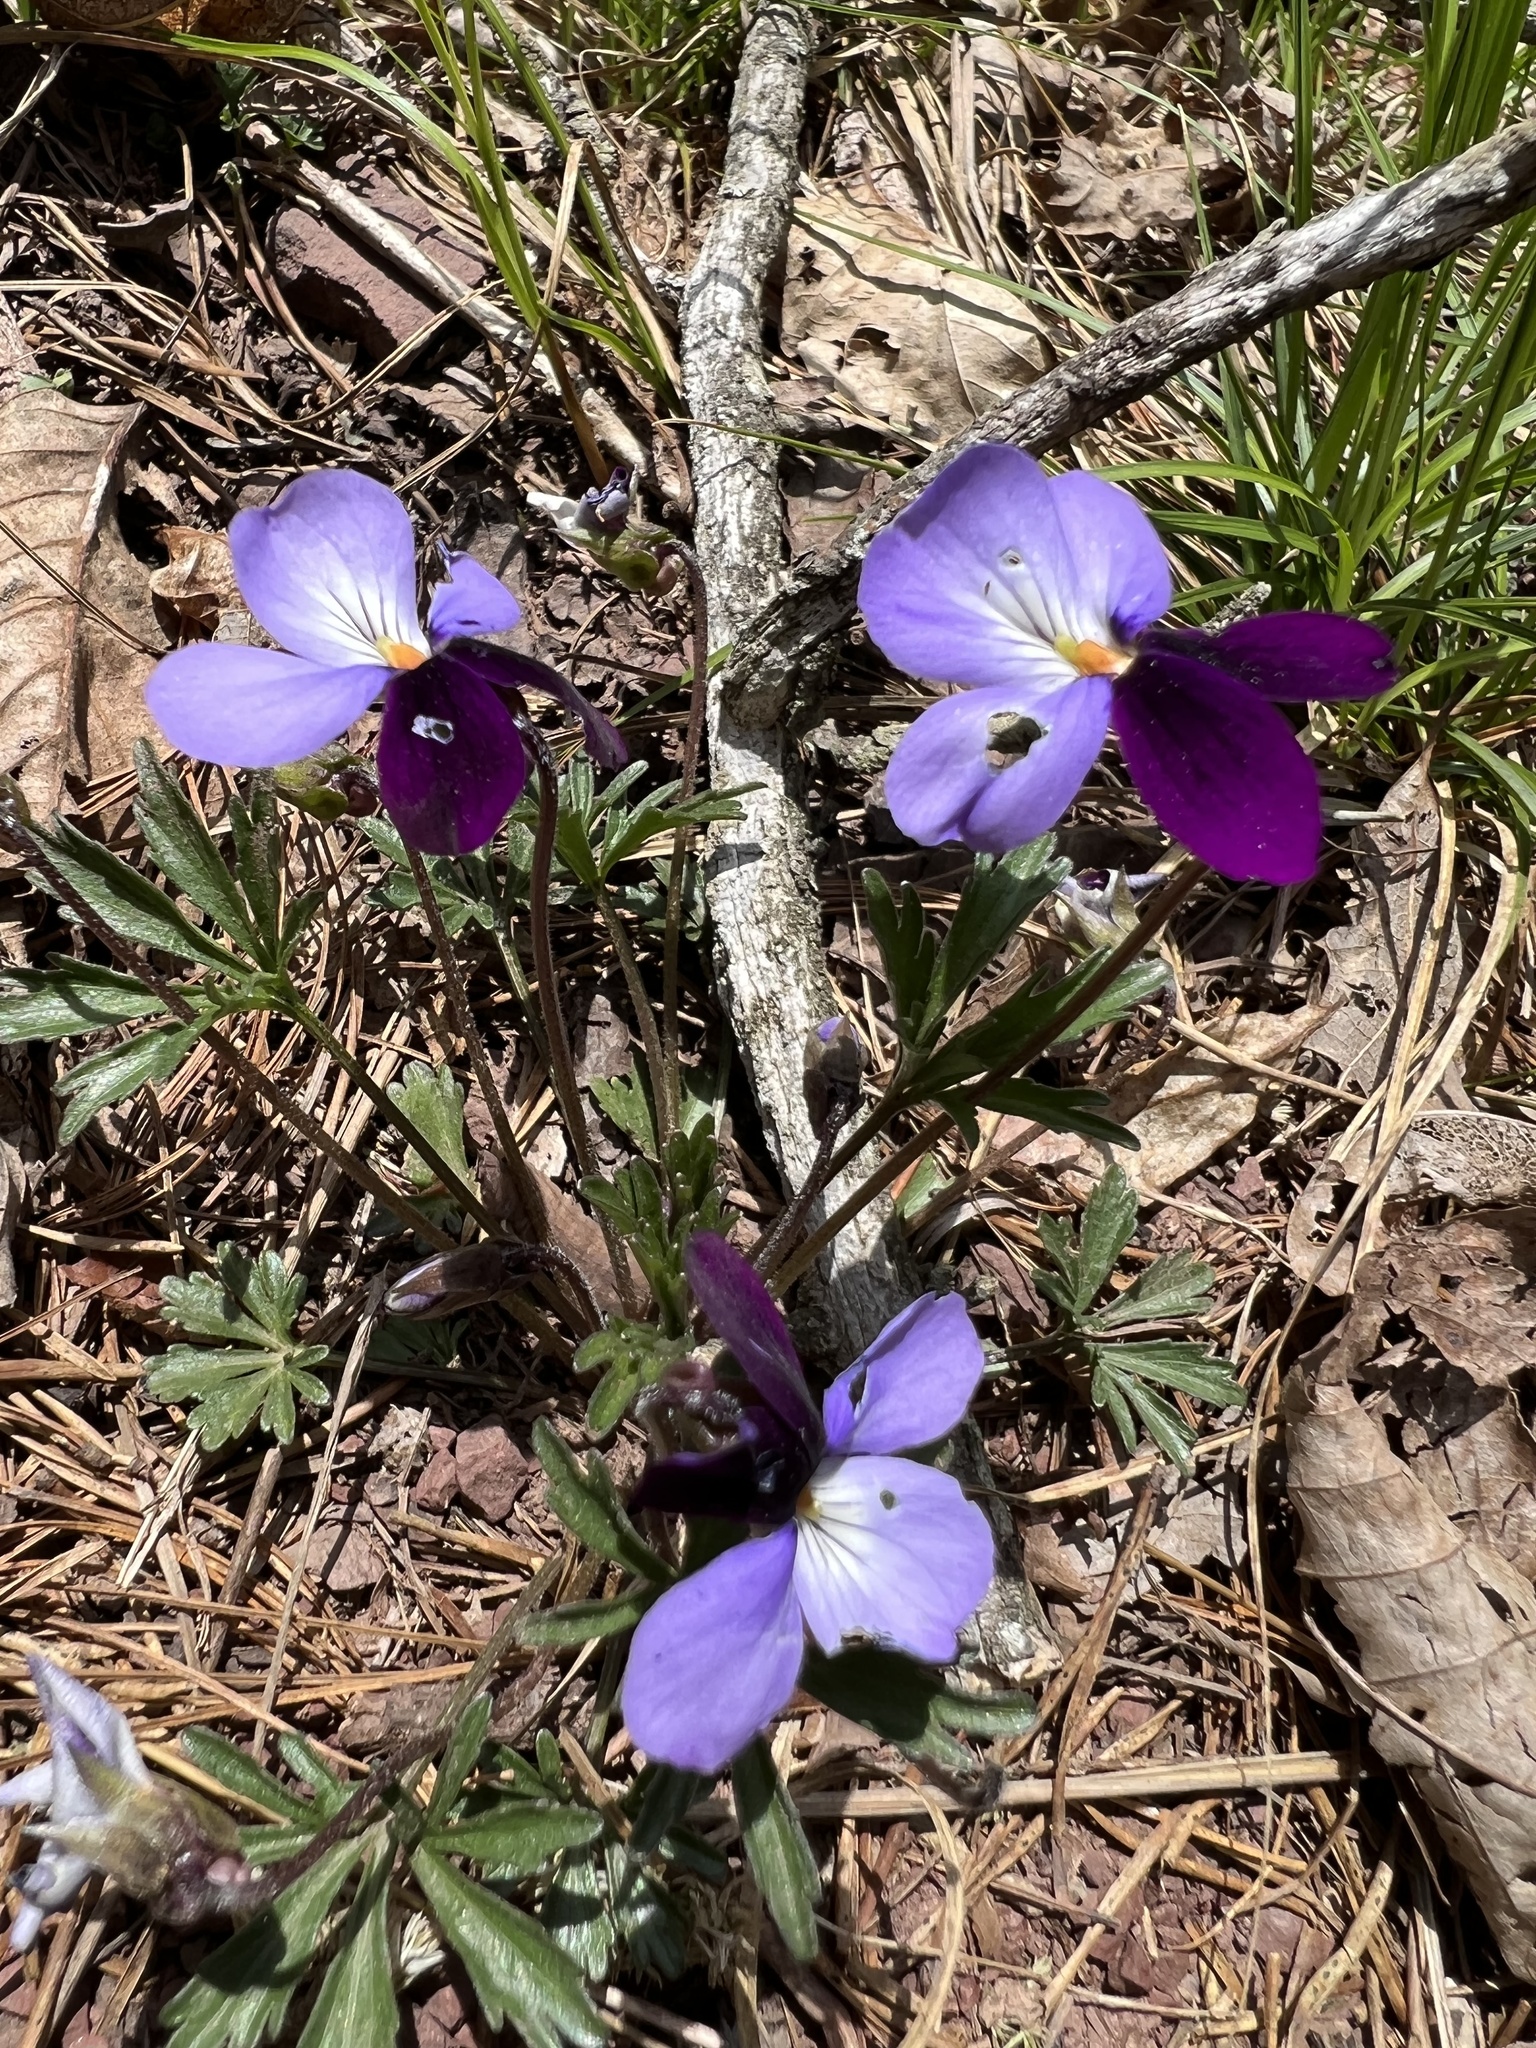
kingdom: Plantae
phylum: Tracheophyta
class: Magnoliopsida
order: Malpighiales
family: Violaceae
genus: Viola
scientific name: Viola pedata
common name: Pansy violet
